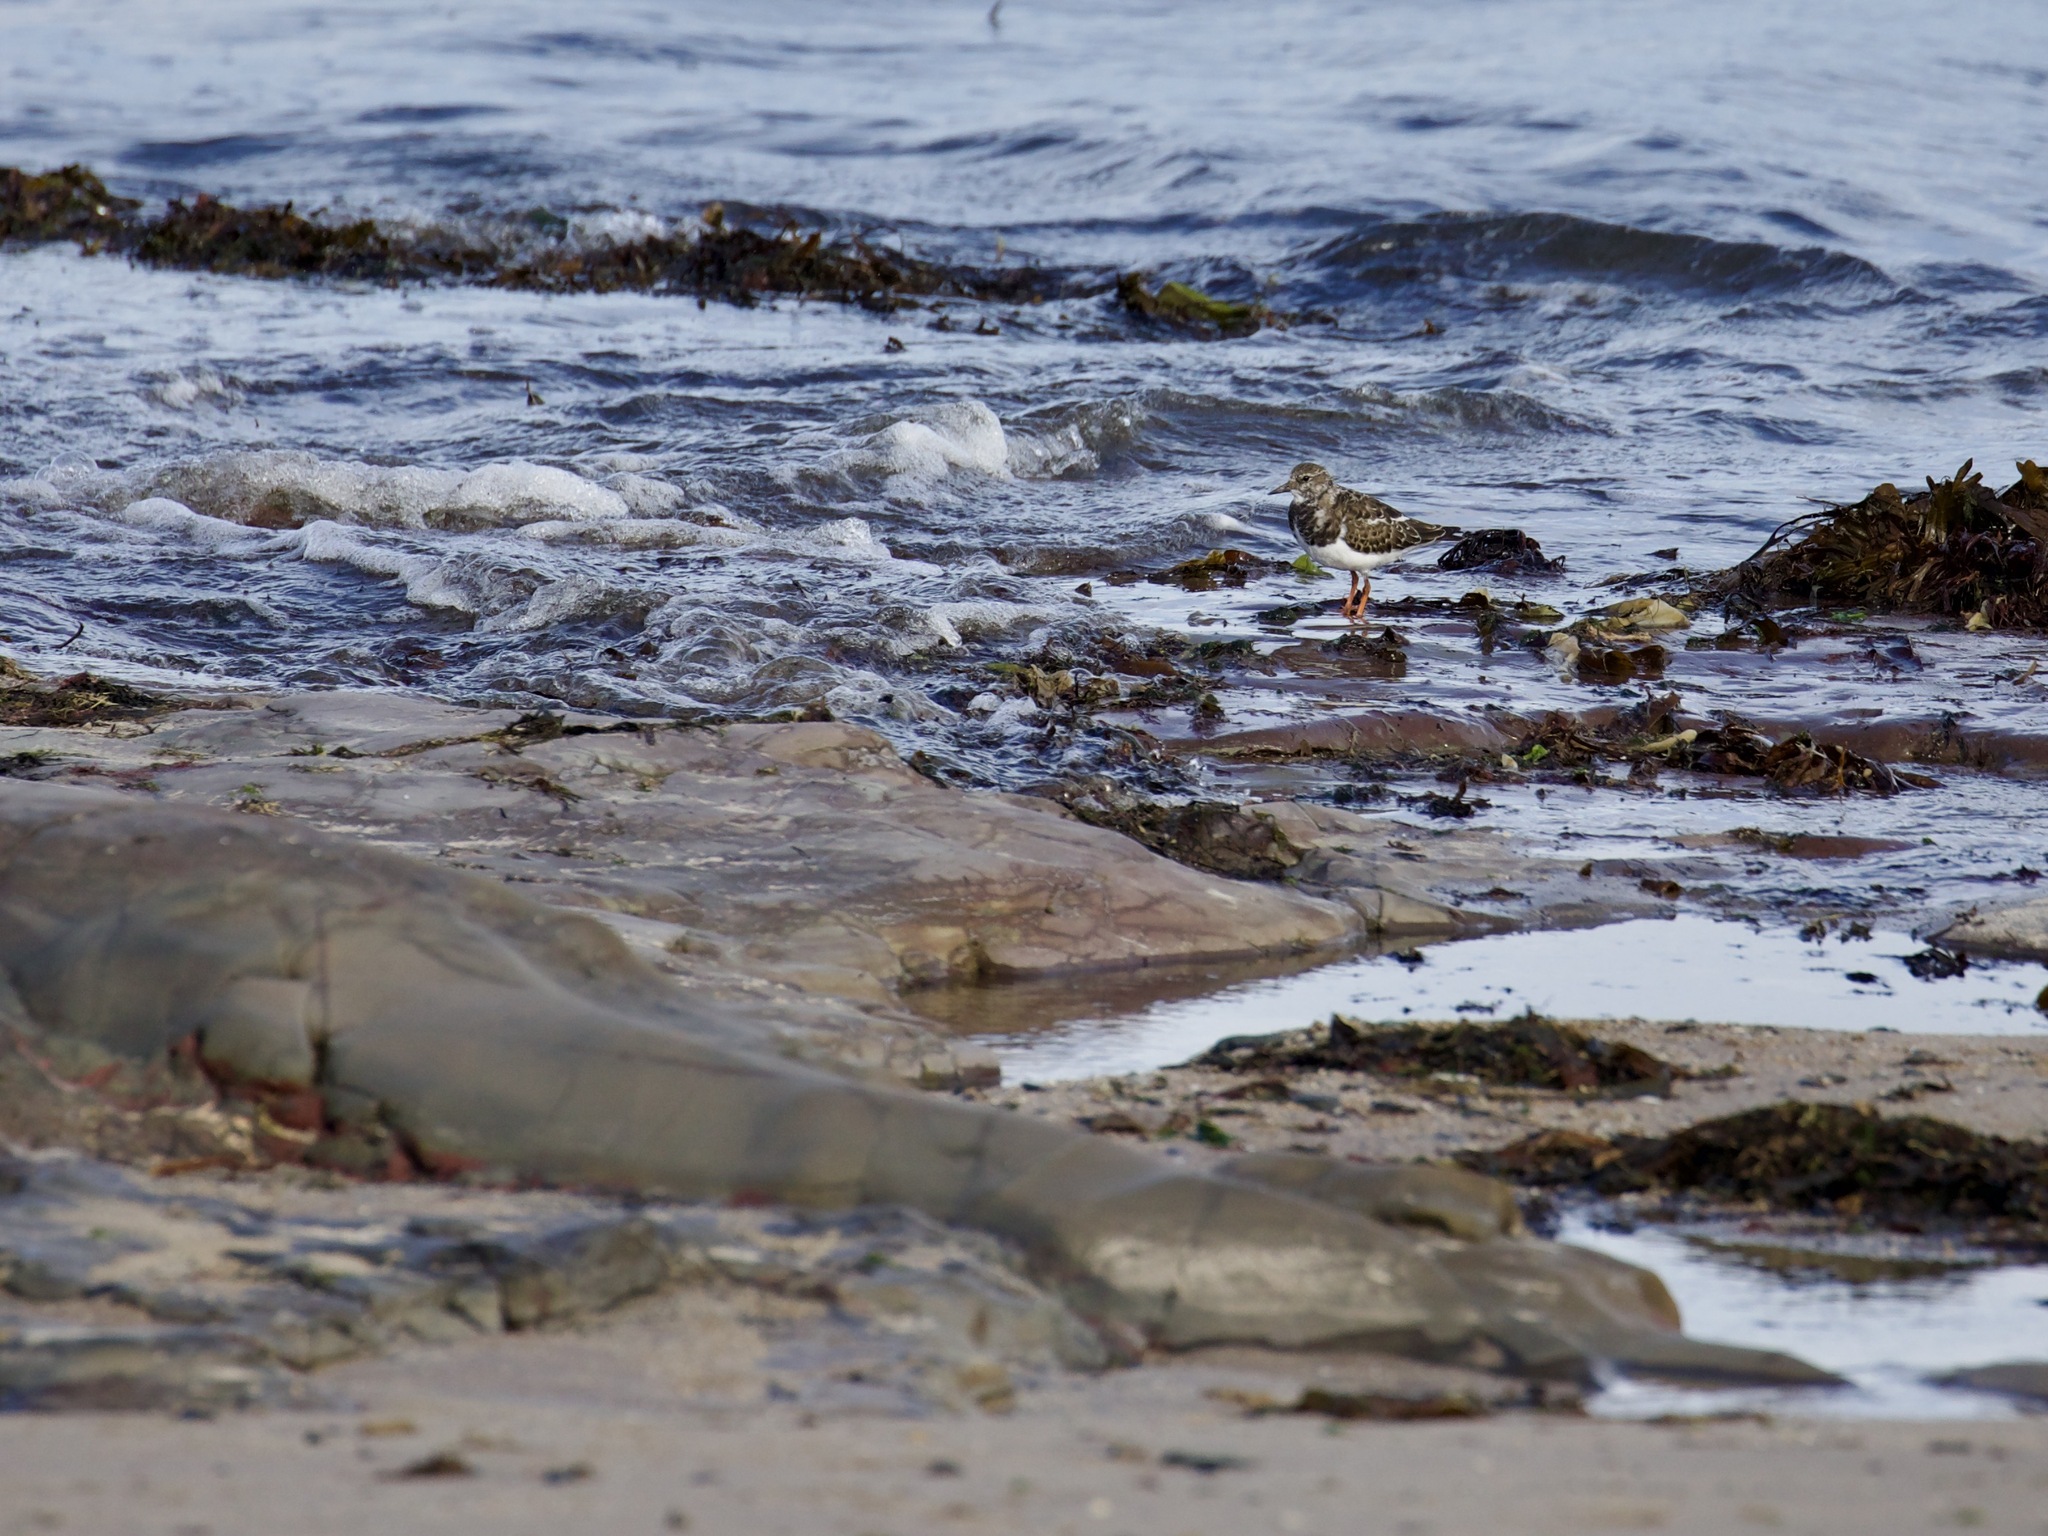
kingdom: Animalia
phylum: Chordata
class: Aves
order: Charadriiformes
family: Scolopacidae
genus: Arenaria
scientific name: Arenaria interpres
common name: Ruddy turnstone
